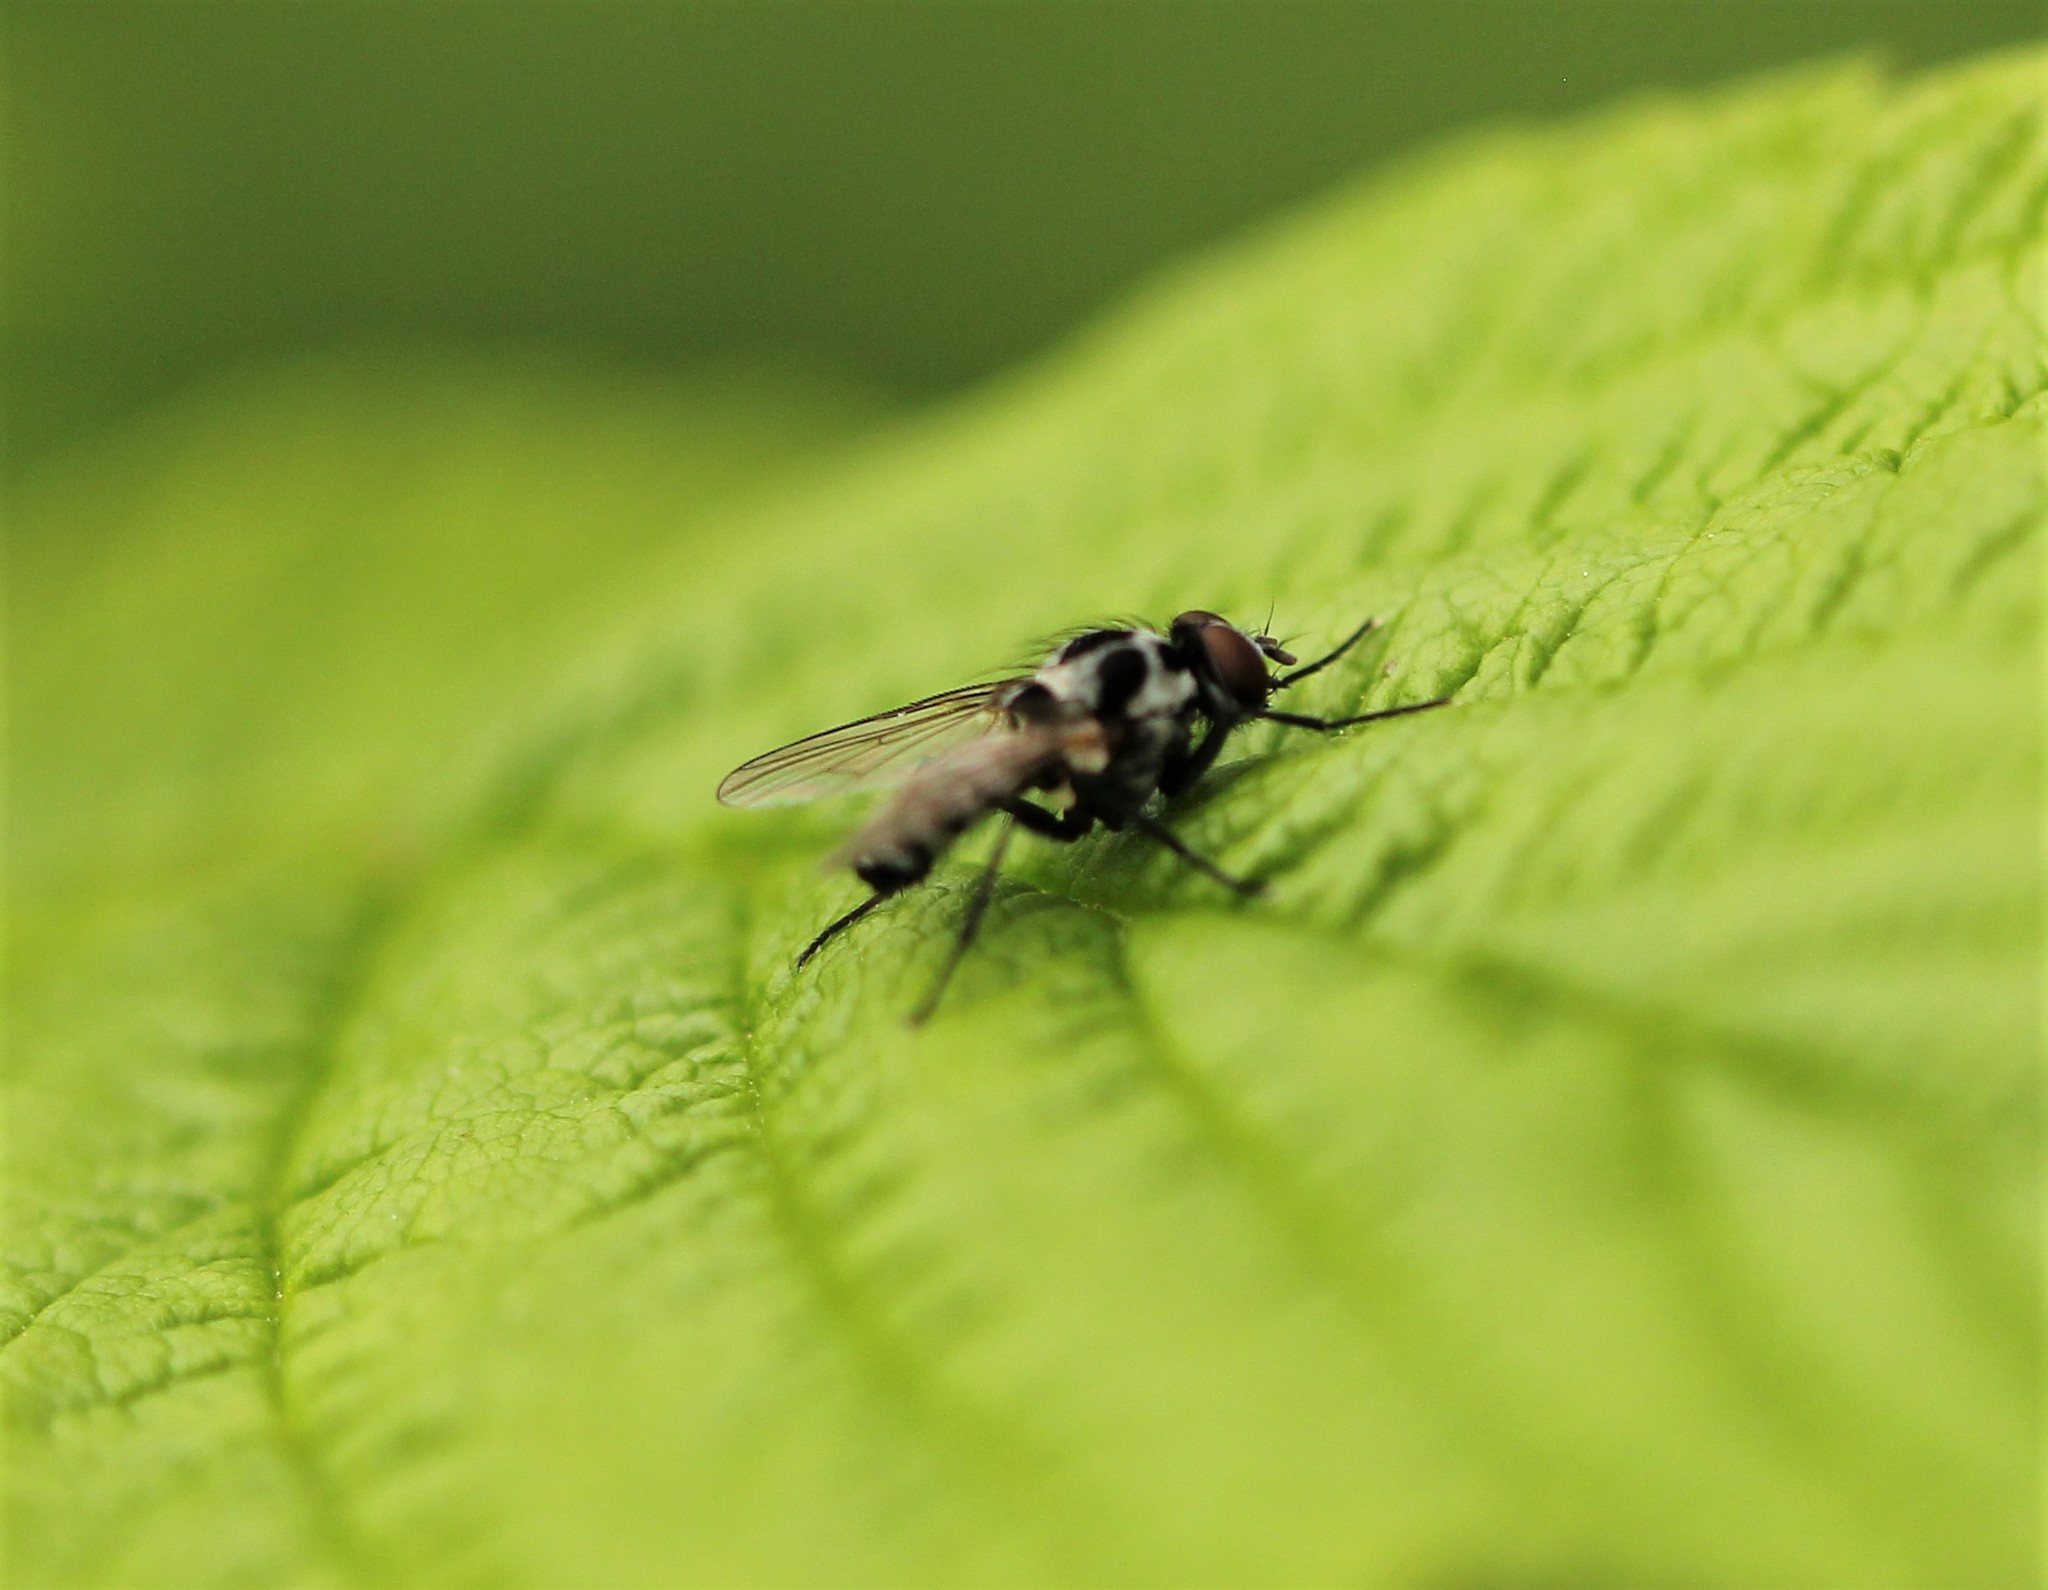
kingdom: Animalia
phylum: Arthropoda
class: Insecta
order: Diptera
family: Anthomyiidae
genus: Anthomyia
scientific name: Anthomyia procellaris
